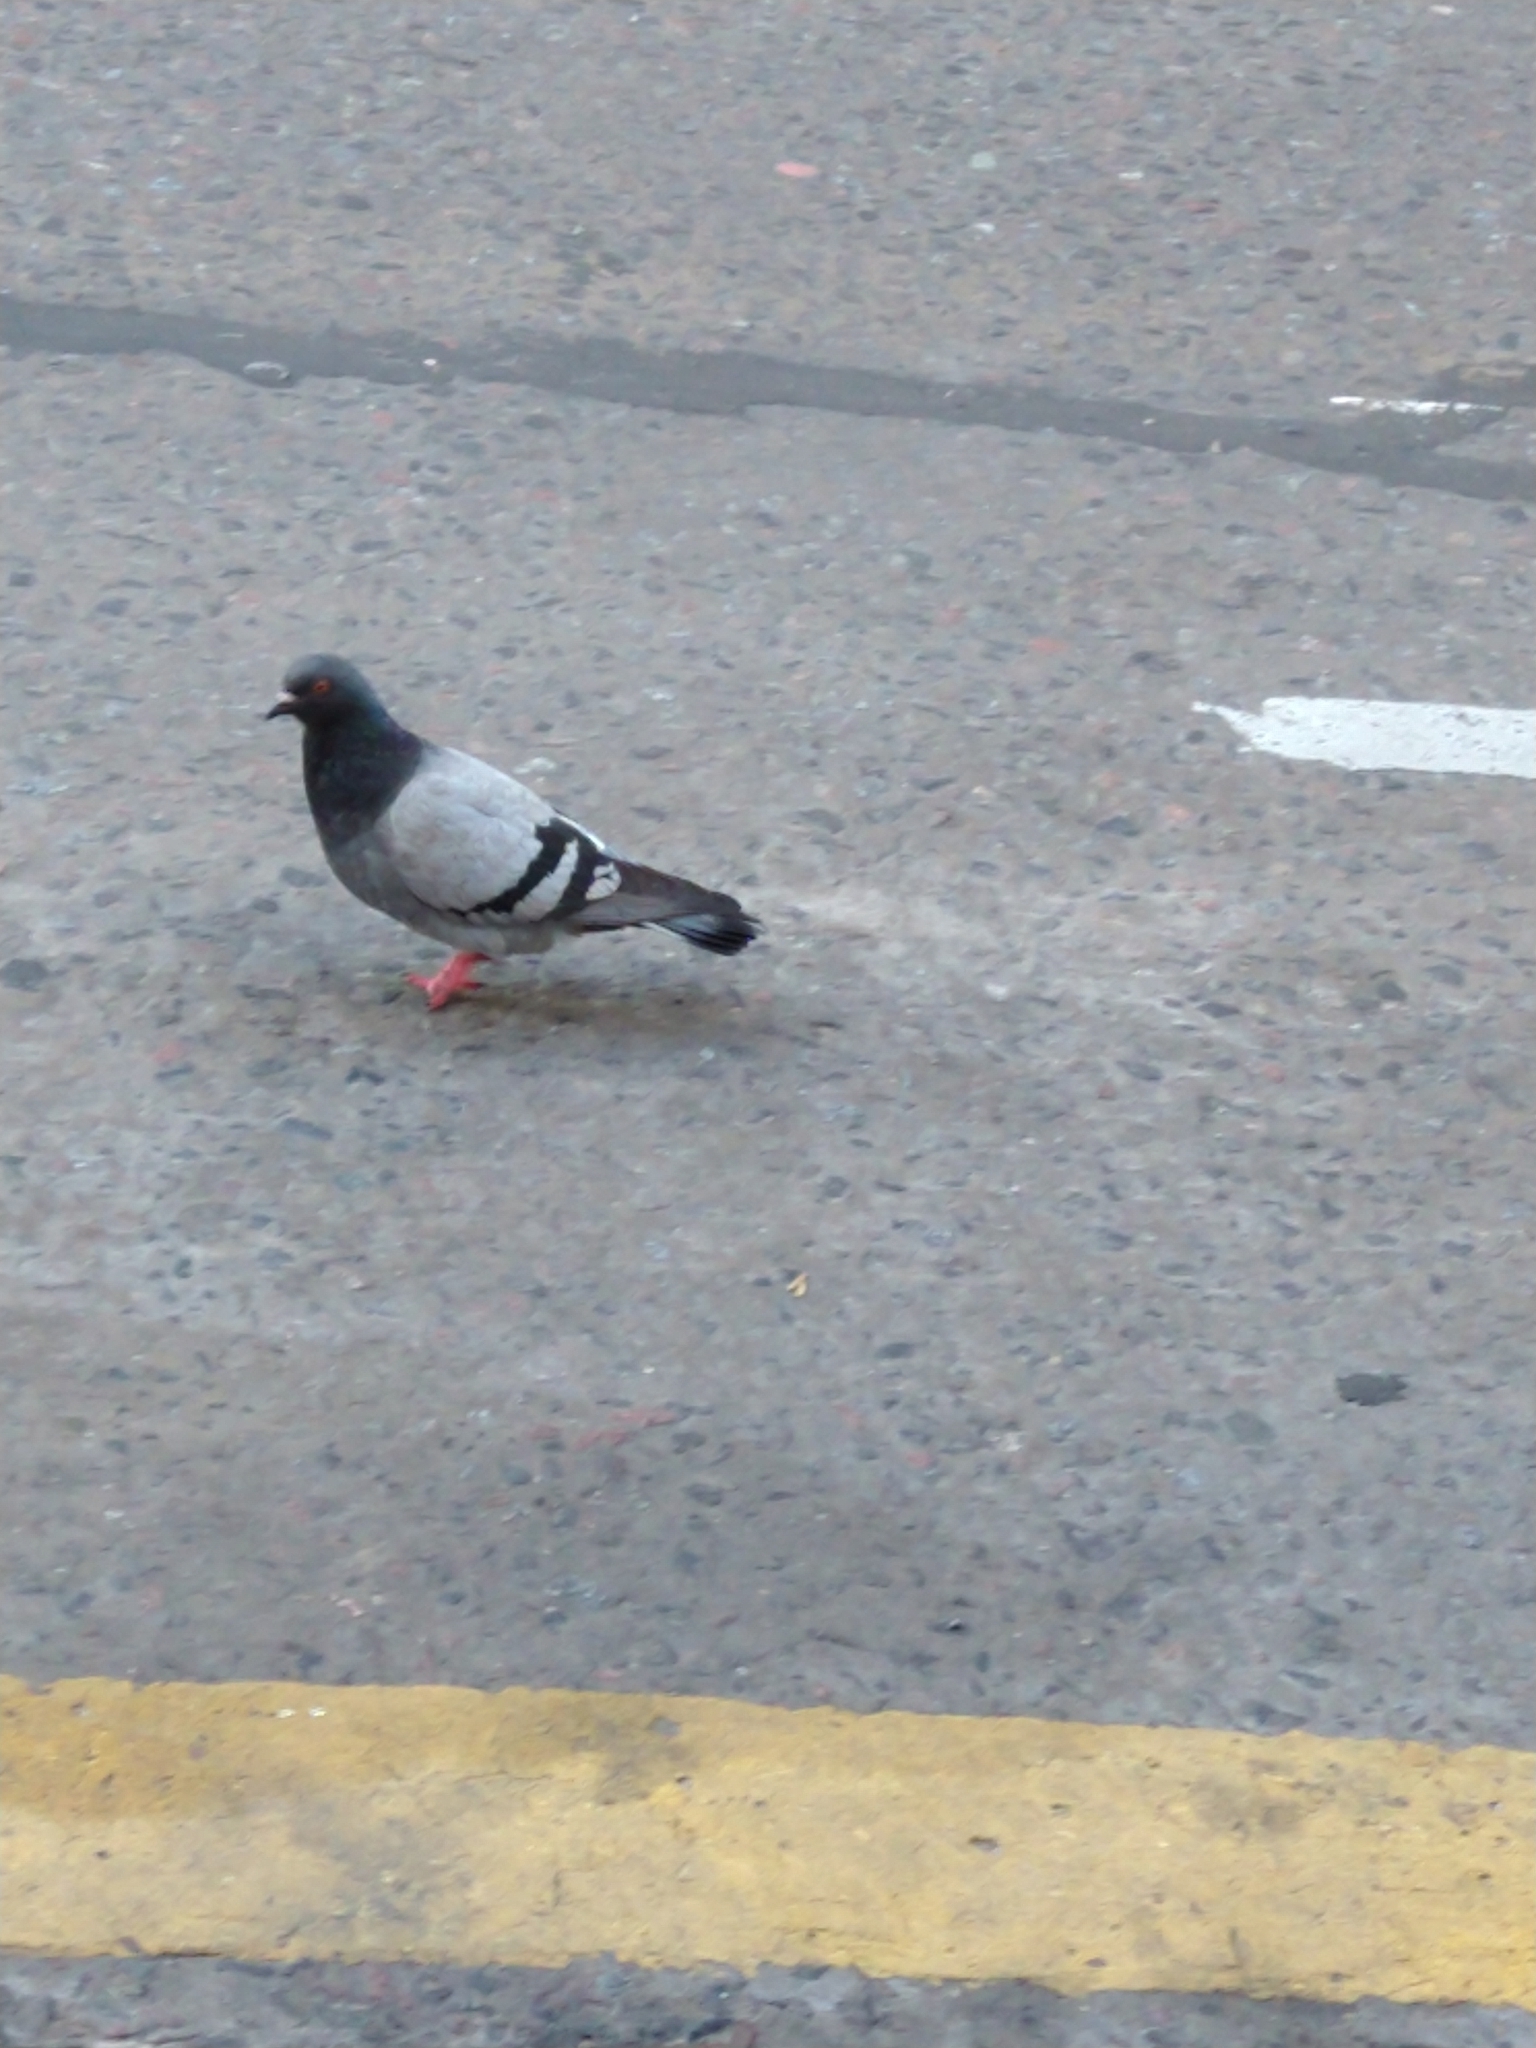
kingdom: Animalia
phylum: Chordata
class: Aves
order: Columbiformes
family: Columbidae
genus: Columba
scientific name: Columba livia
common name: Rock pigeon
